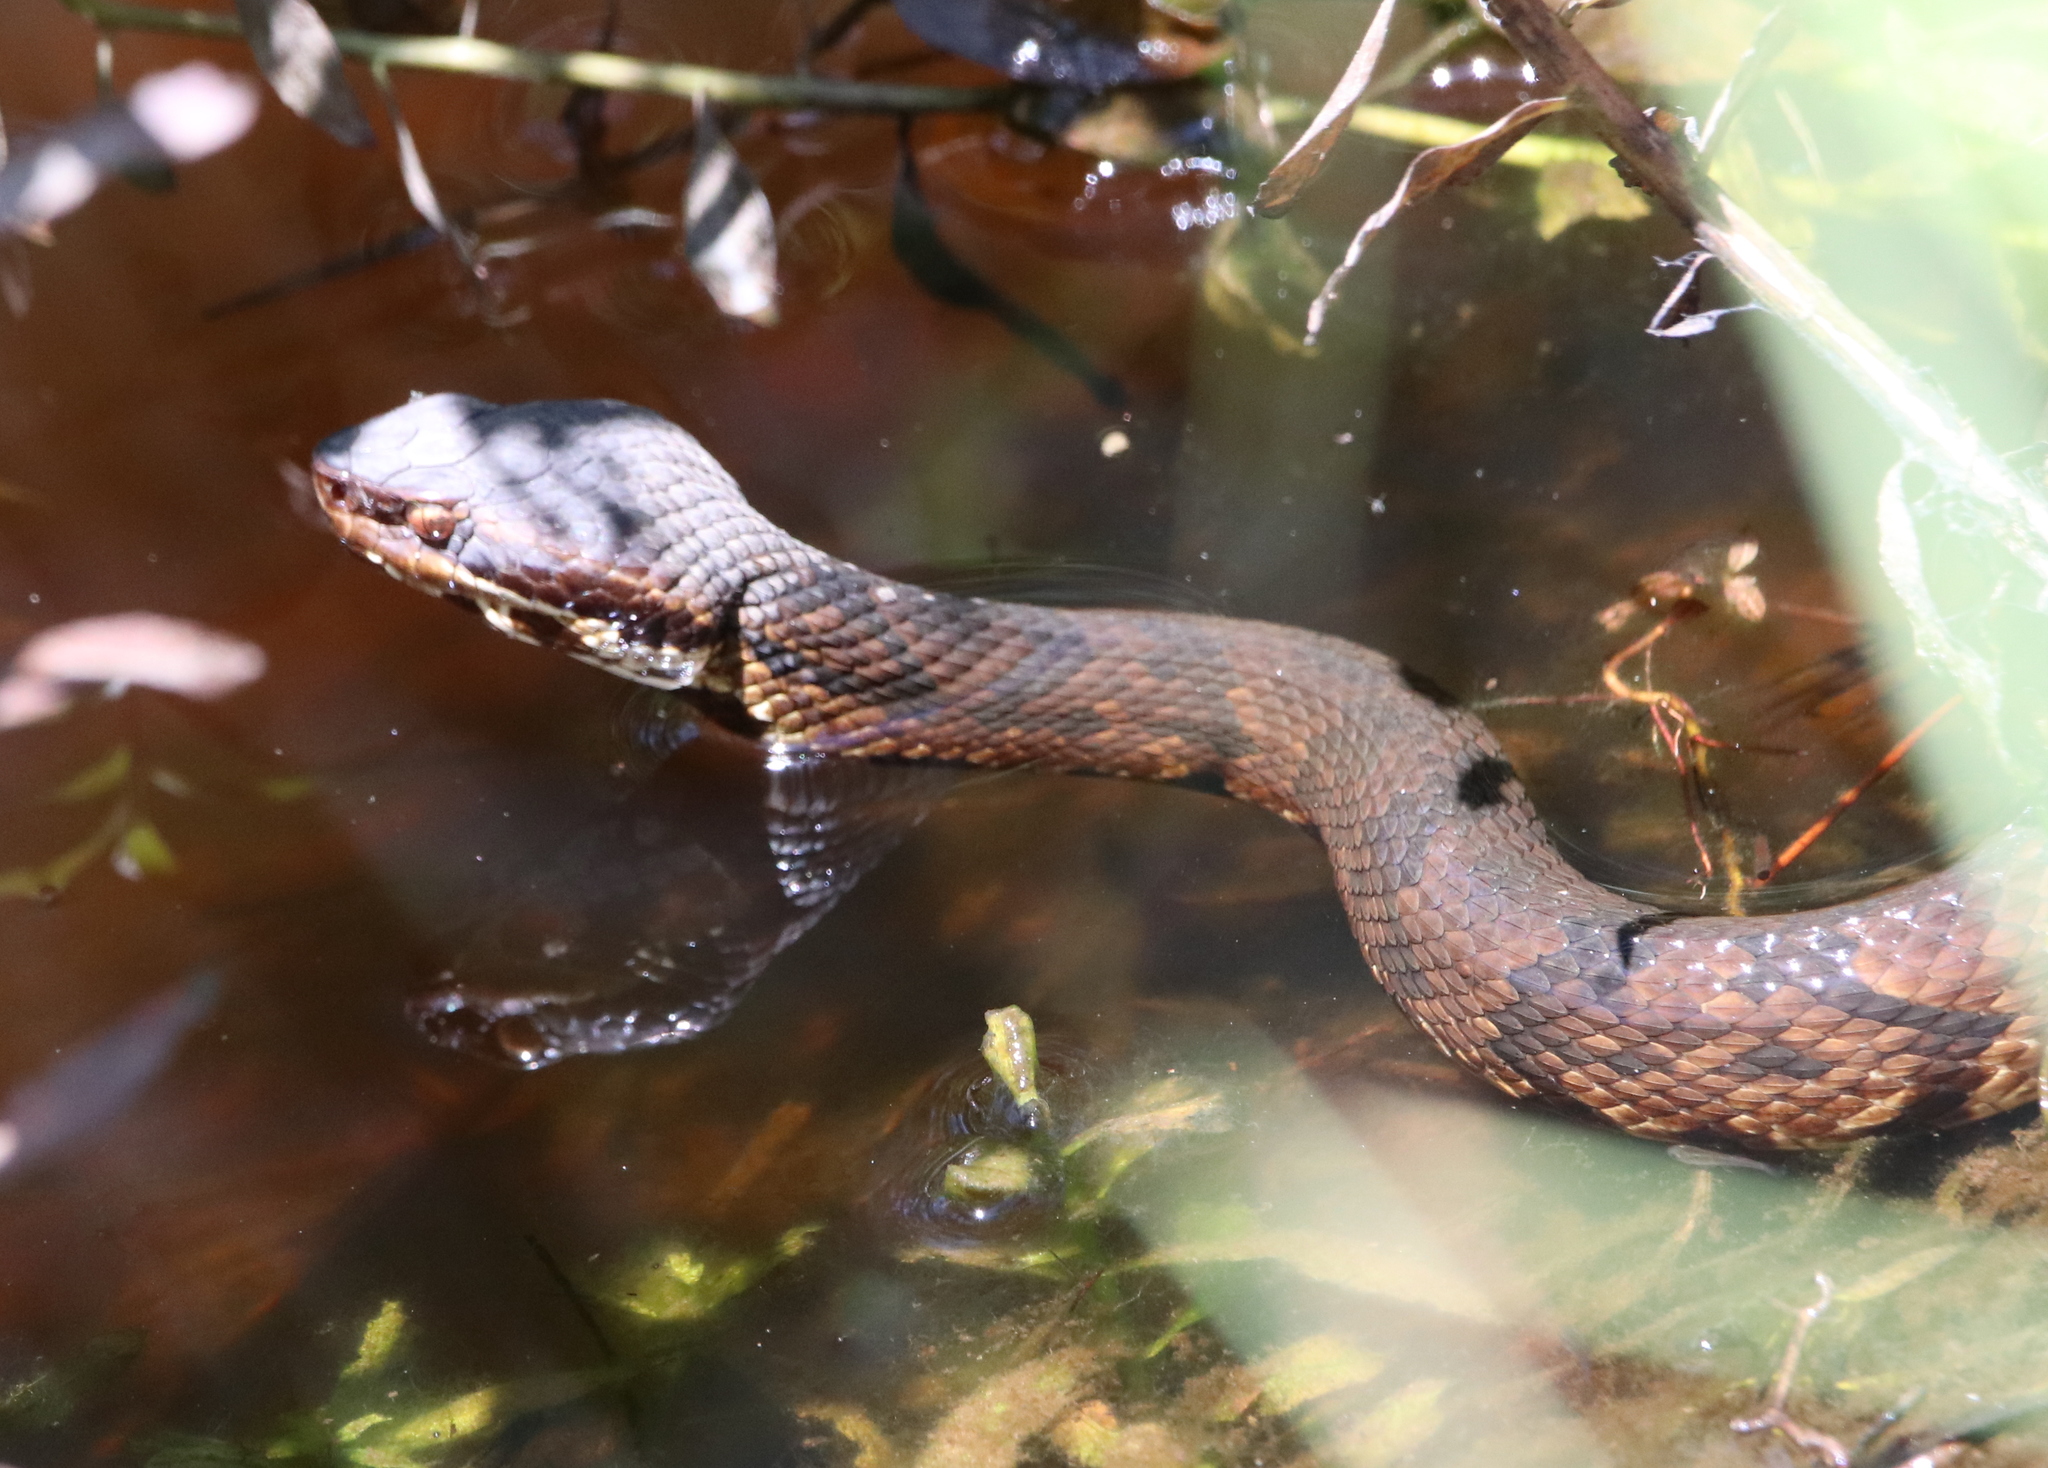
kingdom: Animalia
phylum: Chordata
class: Squamata
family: Viperidae
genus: Agkistrodon
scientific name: Agkistrodon piscivorus
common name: Cottonmouth
